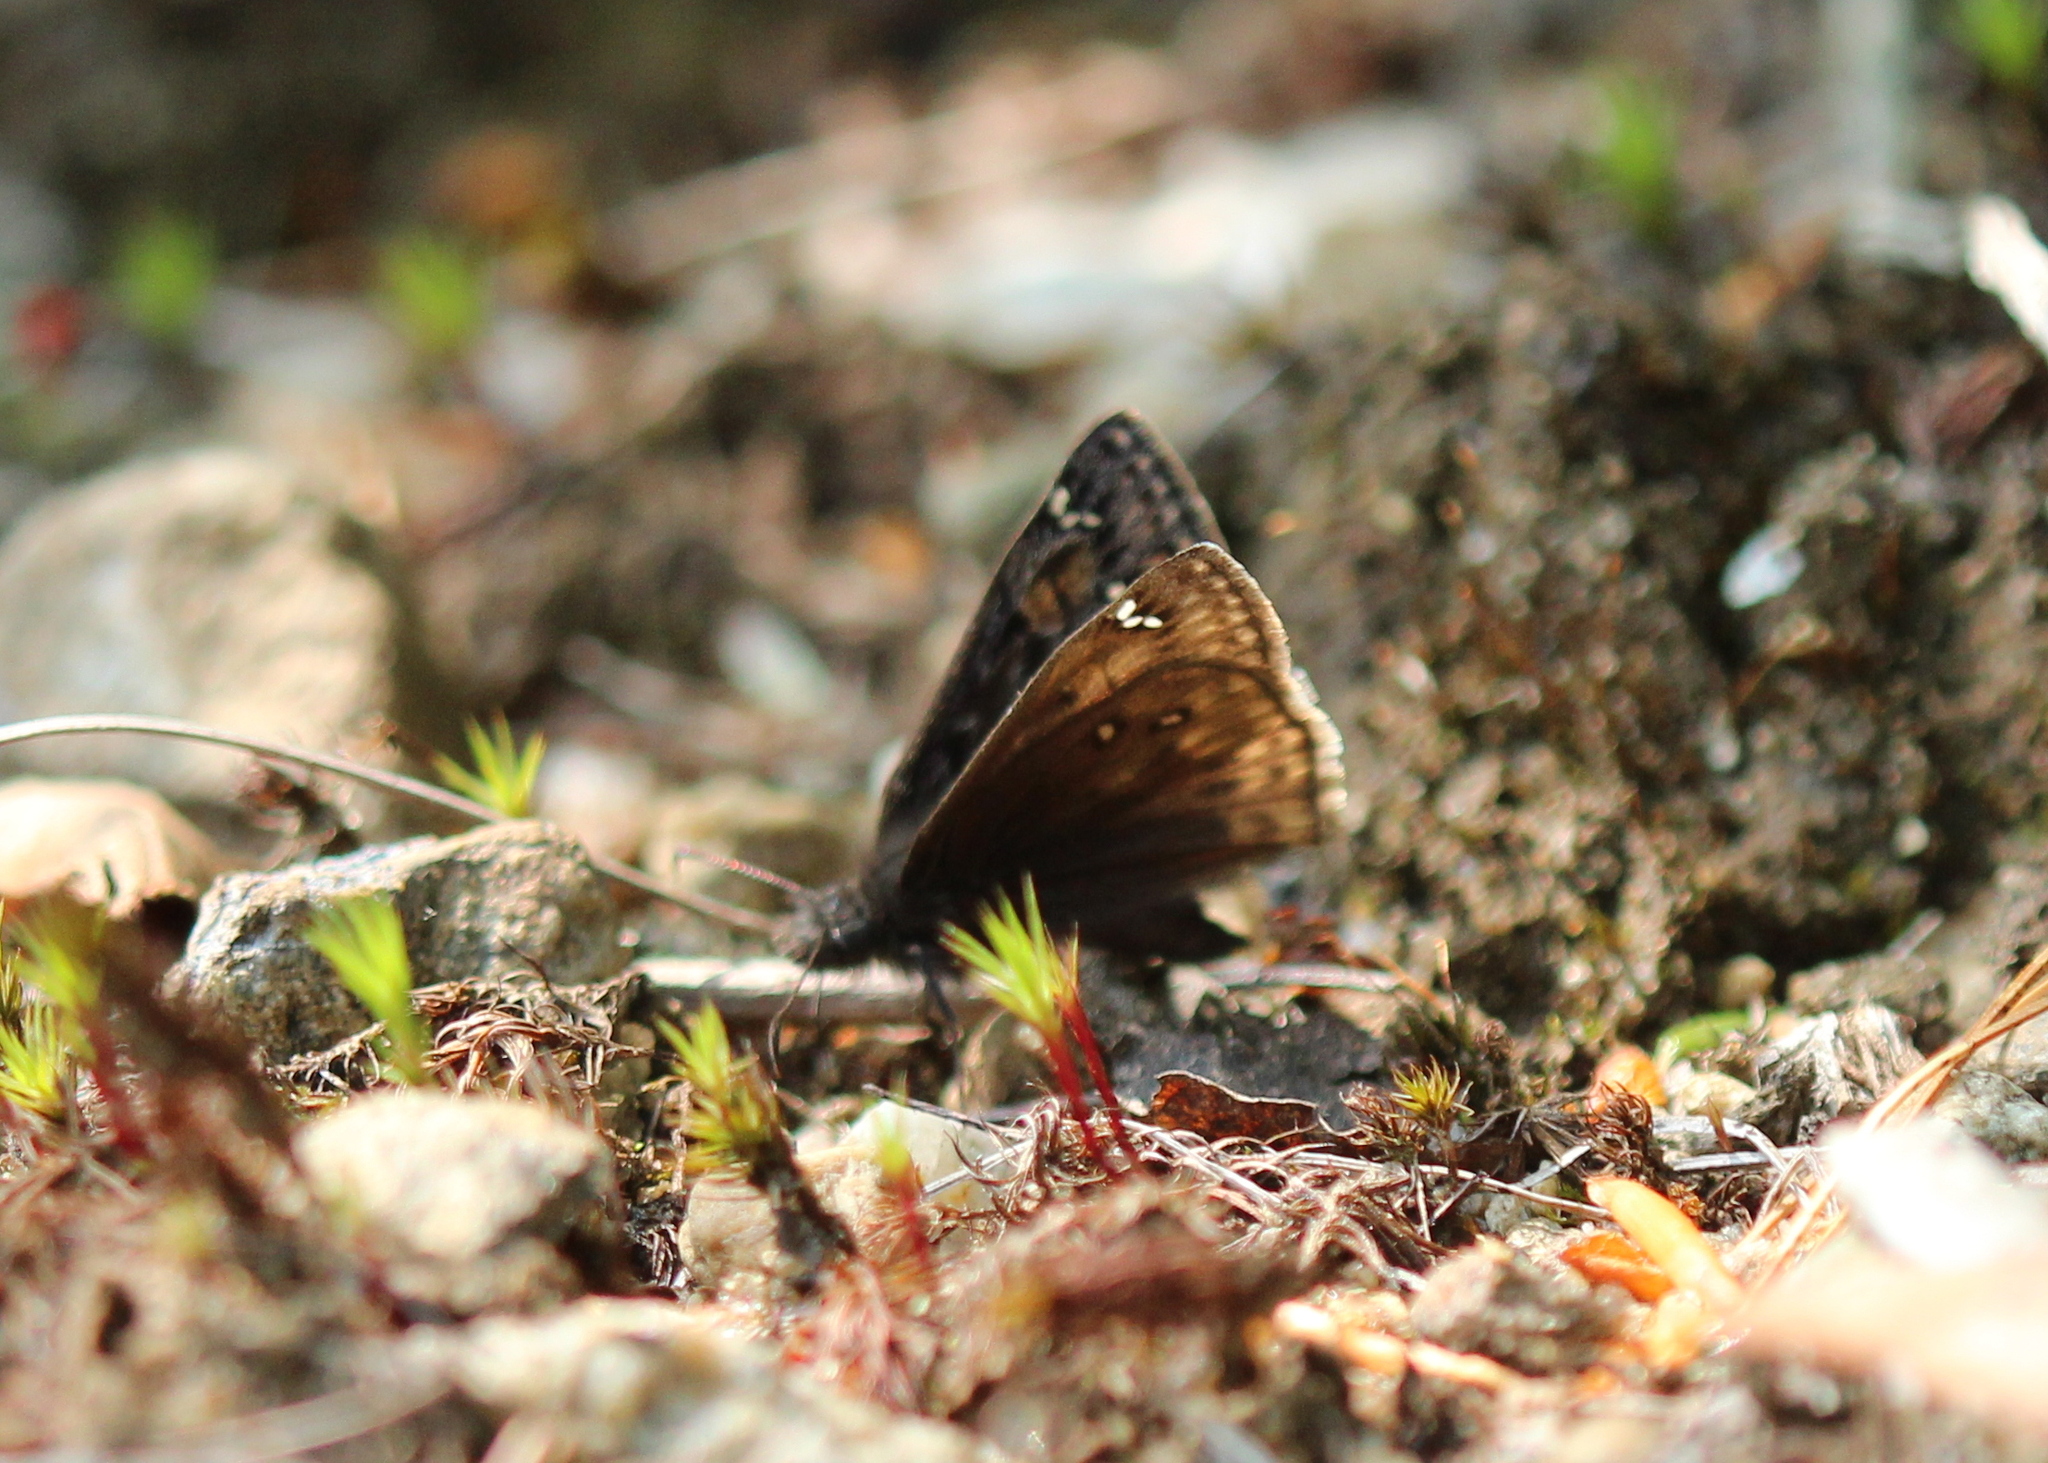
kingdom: Animalia
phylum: Arthropoda
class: Insecta
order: Lepidoptera
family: Hesperiidae
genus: Erynnis
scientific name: Erynnis juvenalis
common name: Juvenal's duskywing
